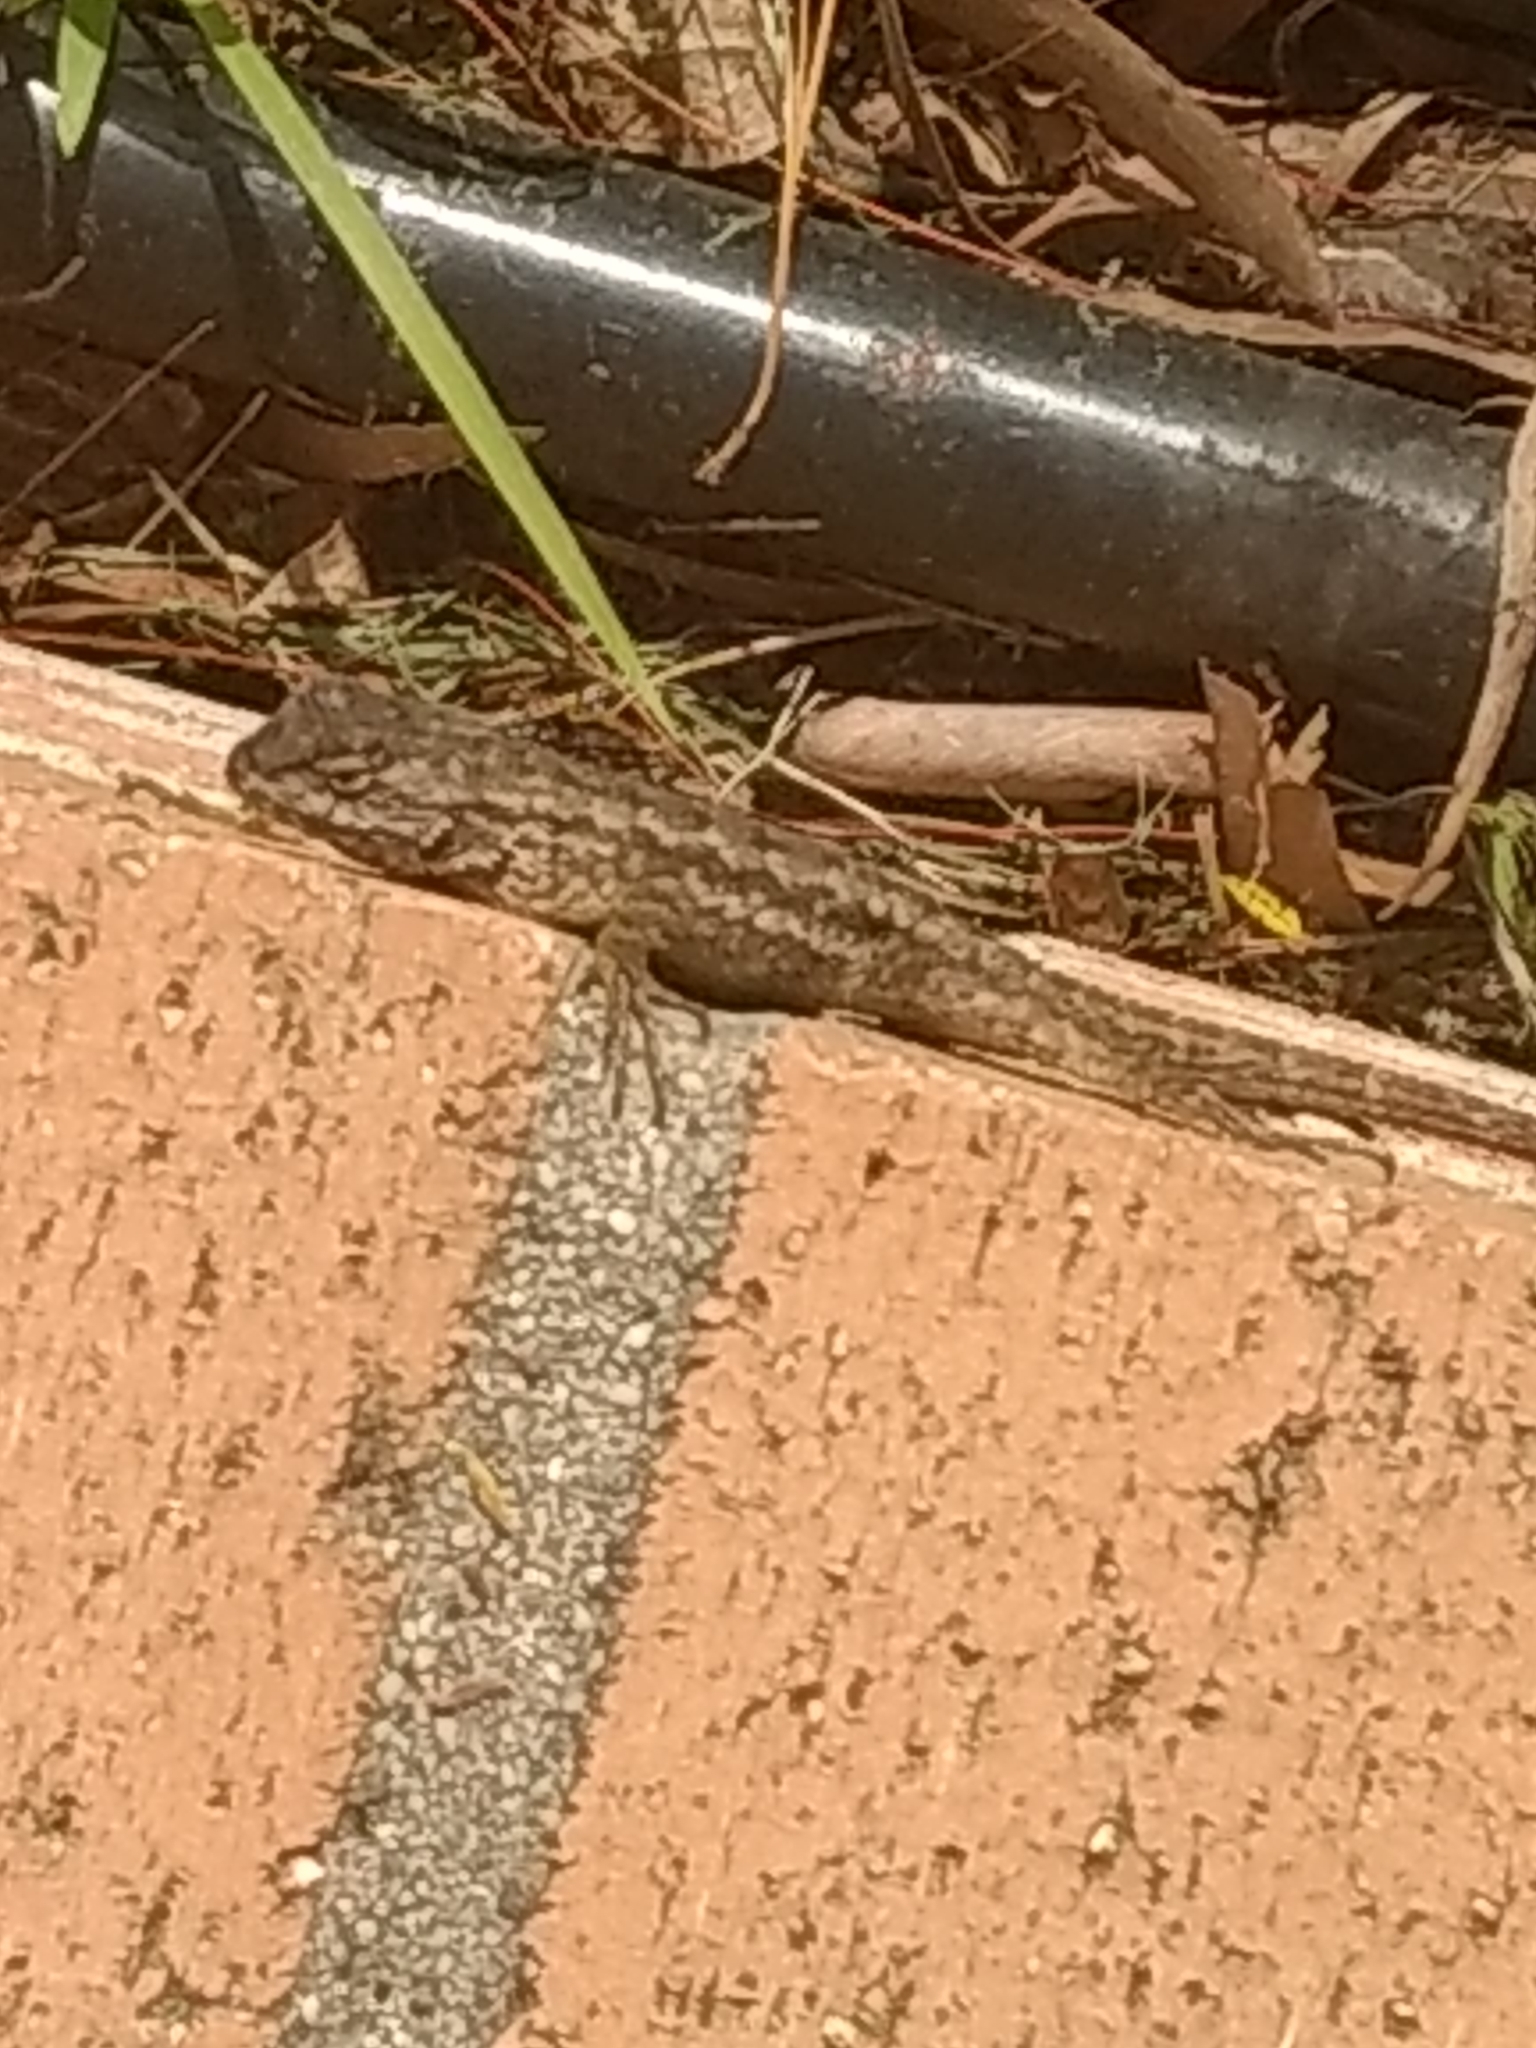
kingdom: Animalia
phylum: Chordata
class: Squamata
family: Phrynosomatidae
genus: Sceloporus
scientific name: Sceloporus occidentalis
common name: Western fence lizard
